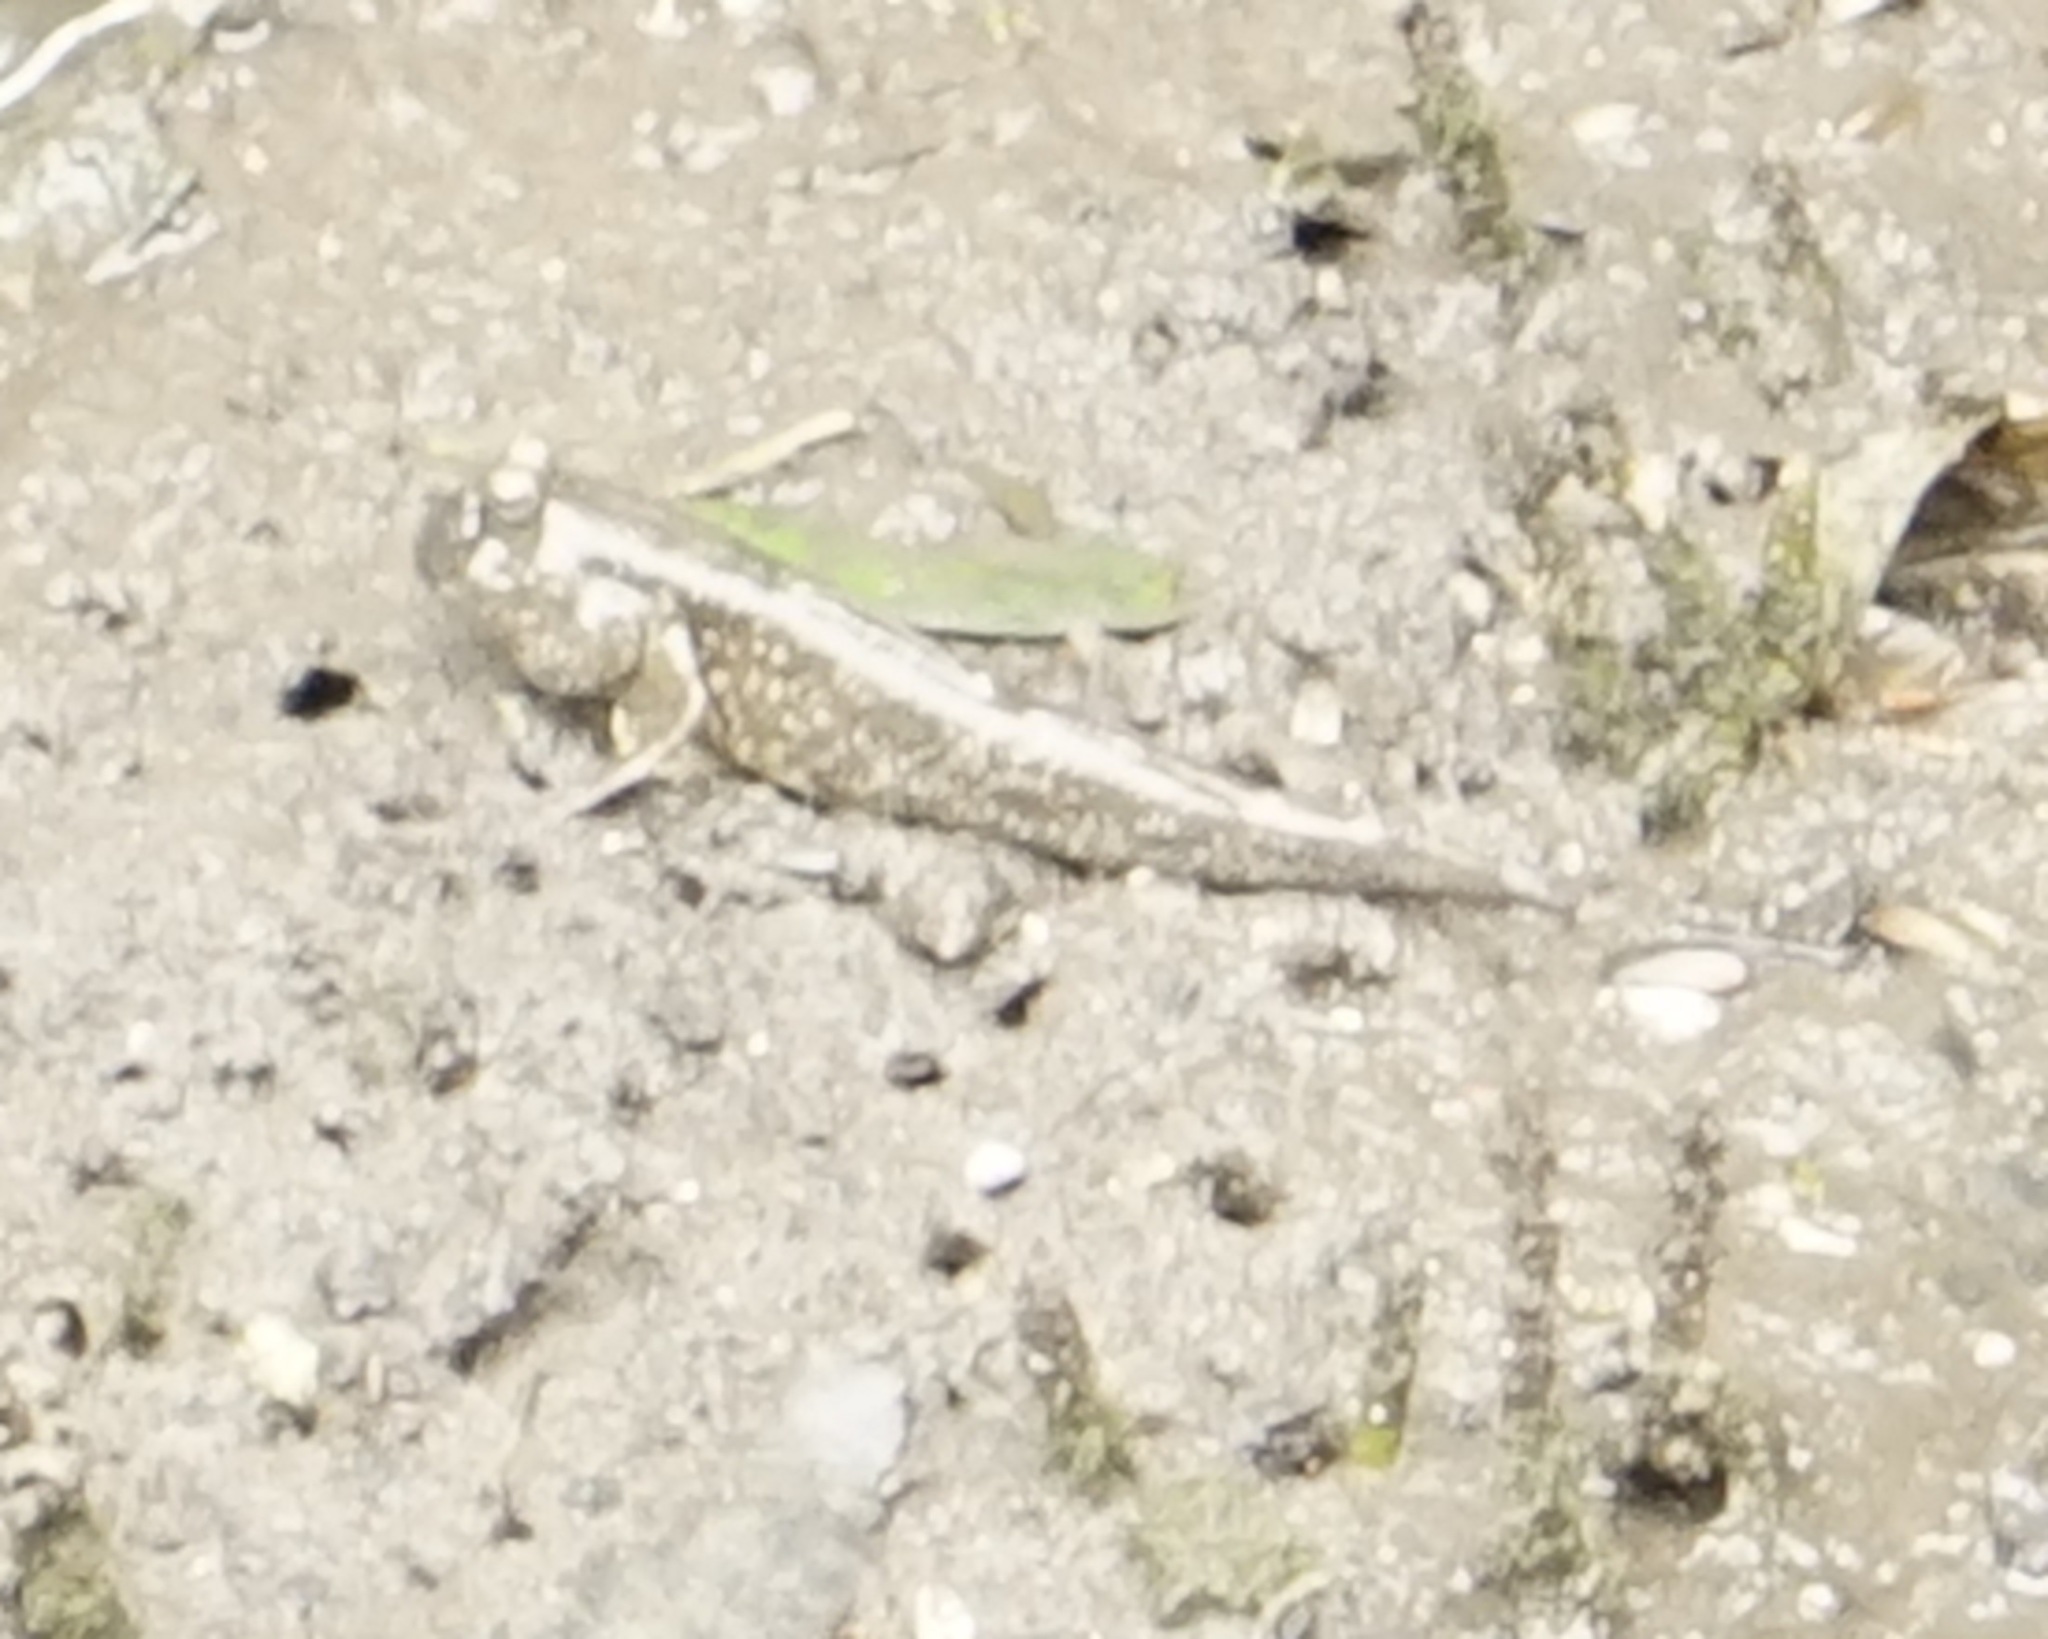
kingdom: Animalia
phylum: Chordata
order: Perciformes
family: Gobiidae
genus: Periophthalmus
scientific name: Periophthalmus walailakae
